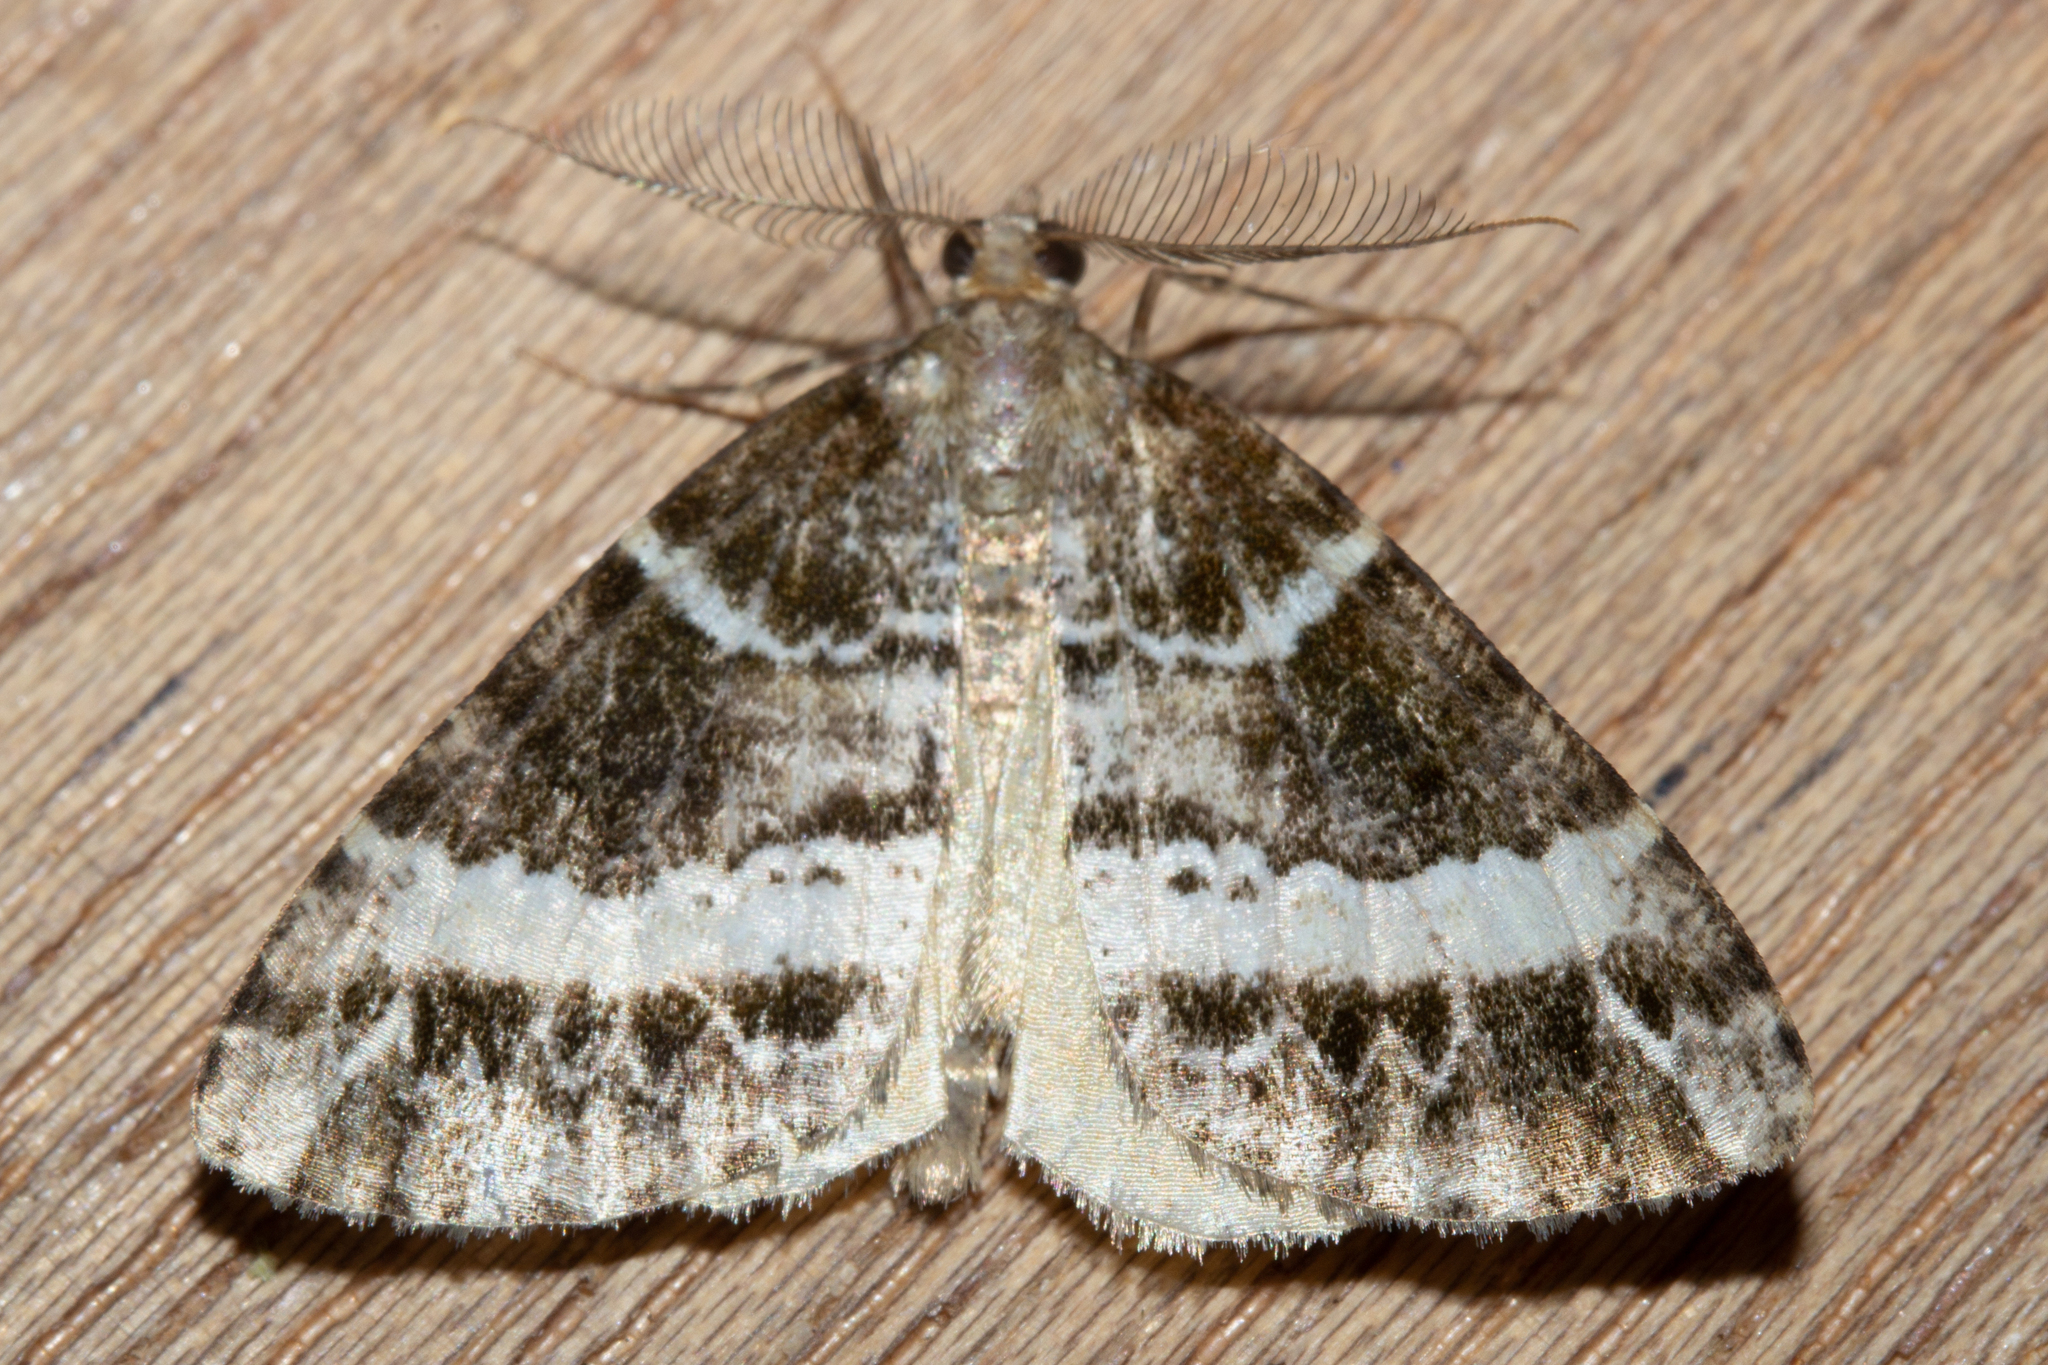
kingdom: Animalia
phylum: Arthropoda
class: Insecta
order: Lepidoptera
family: Geometridae
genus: Pseudocoremia
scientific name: Pseudocoremia
